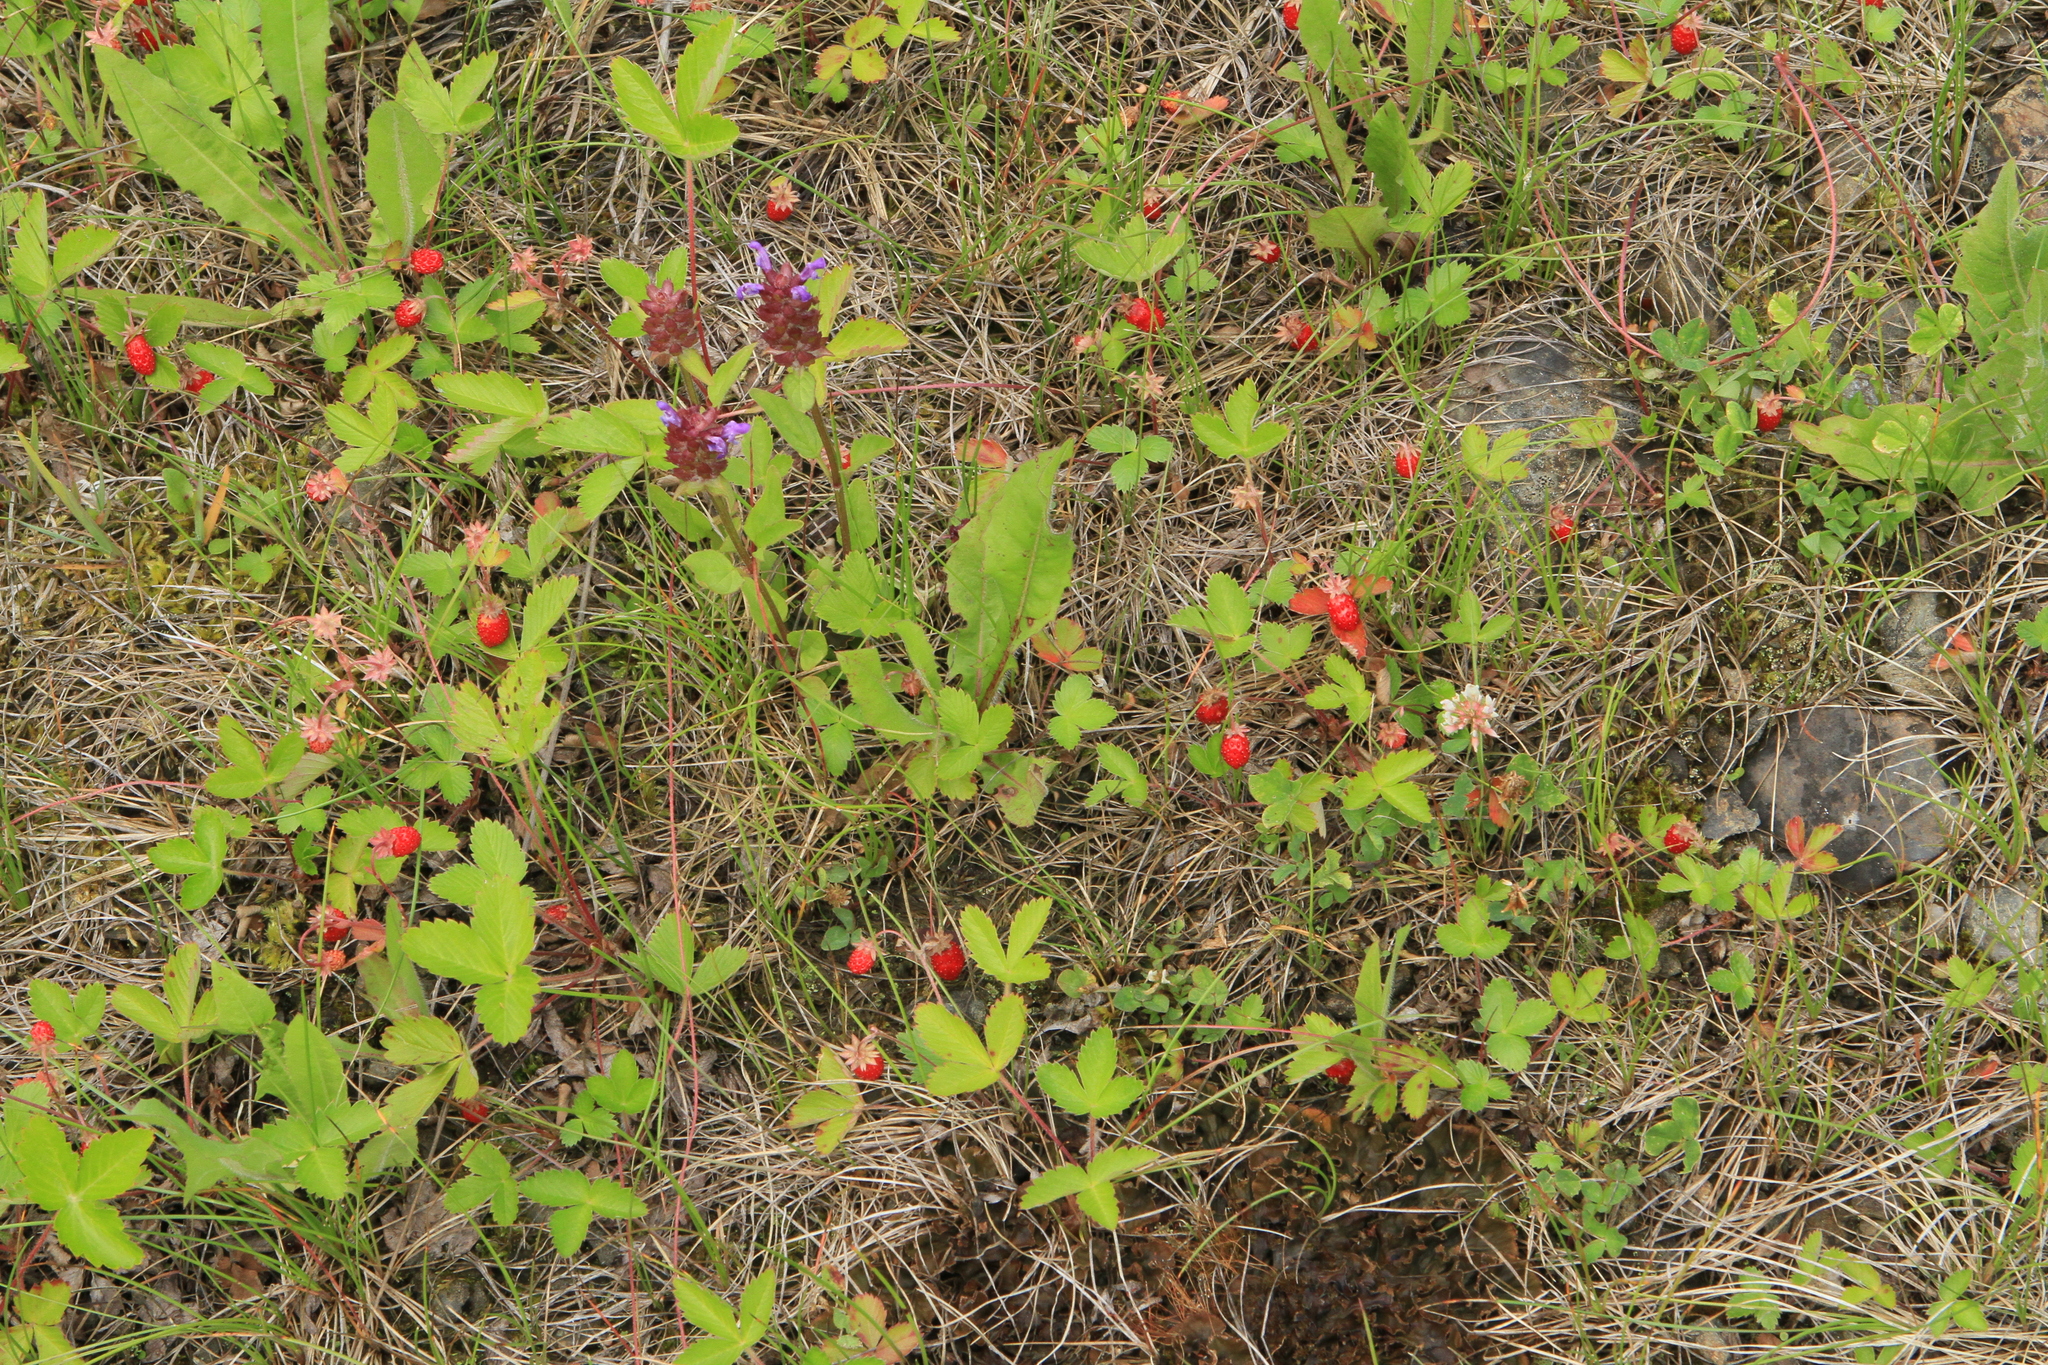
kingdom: Plantae
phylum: Tracheophyta
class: Magnoliopsida
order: Rosales
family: Rosaceae
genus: Fragaria
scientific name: Fragaria vesca
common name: Wild strawberry
